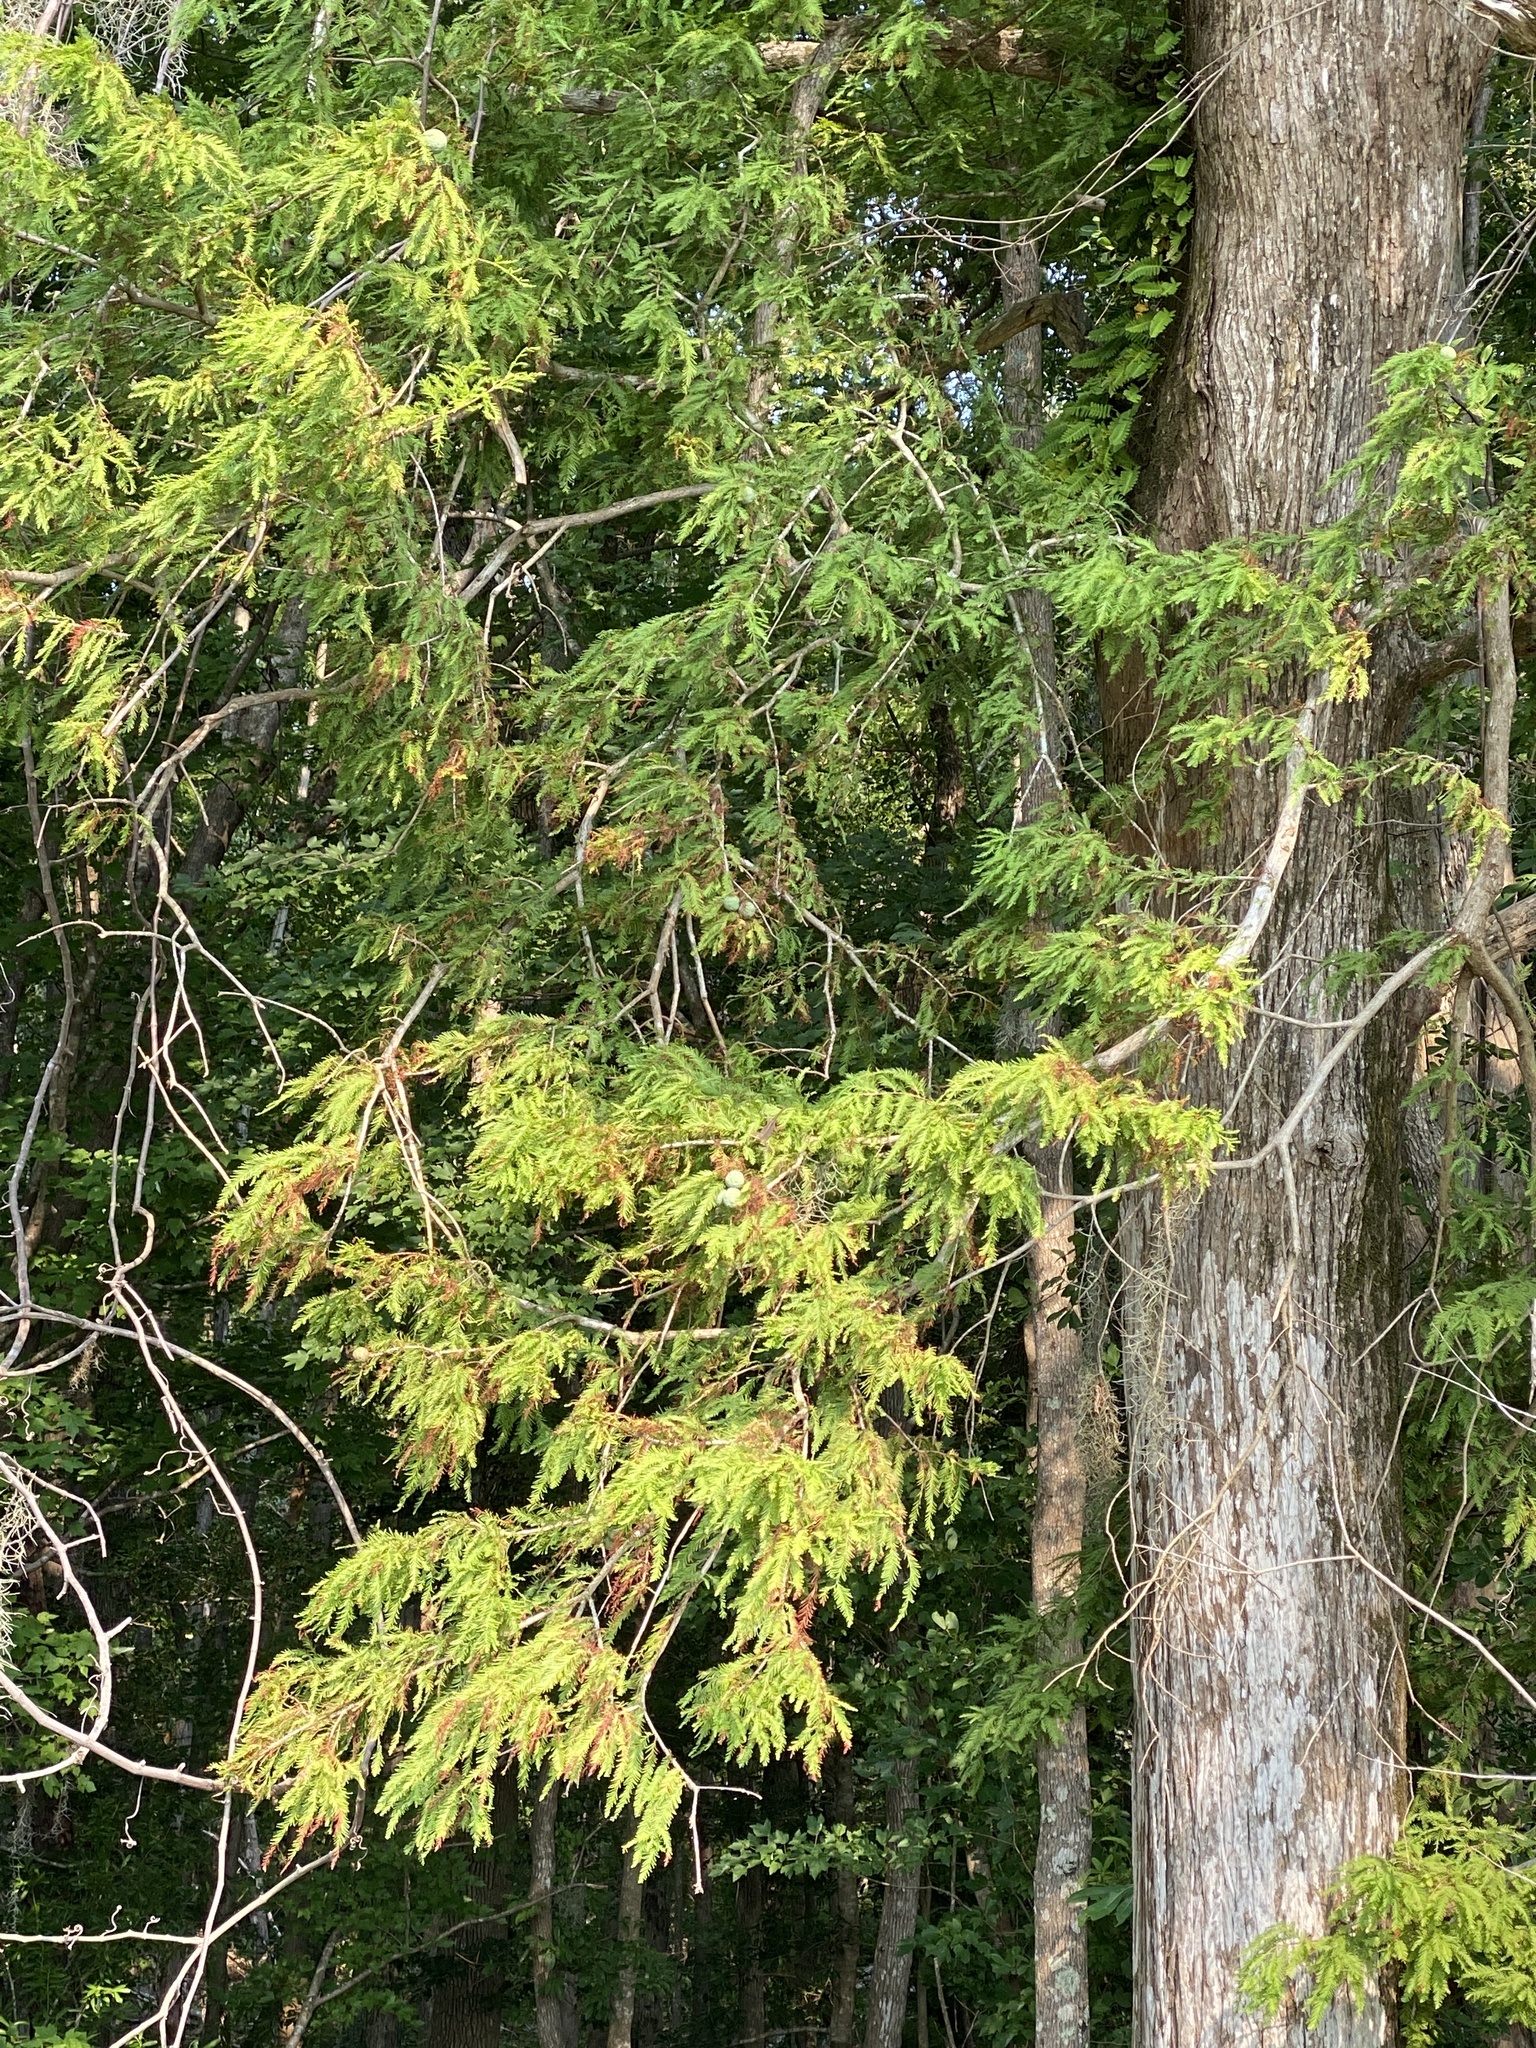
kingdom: Plantae
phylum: Tracheophyta
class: Pinopsida
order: Pinales
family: Cupressaceae
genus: Taxodium
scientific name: Taxodium distichum
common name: Bald cypress
